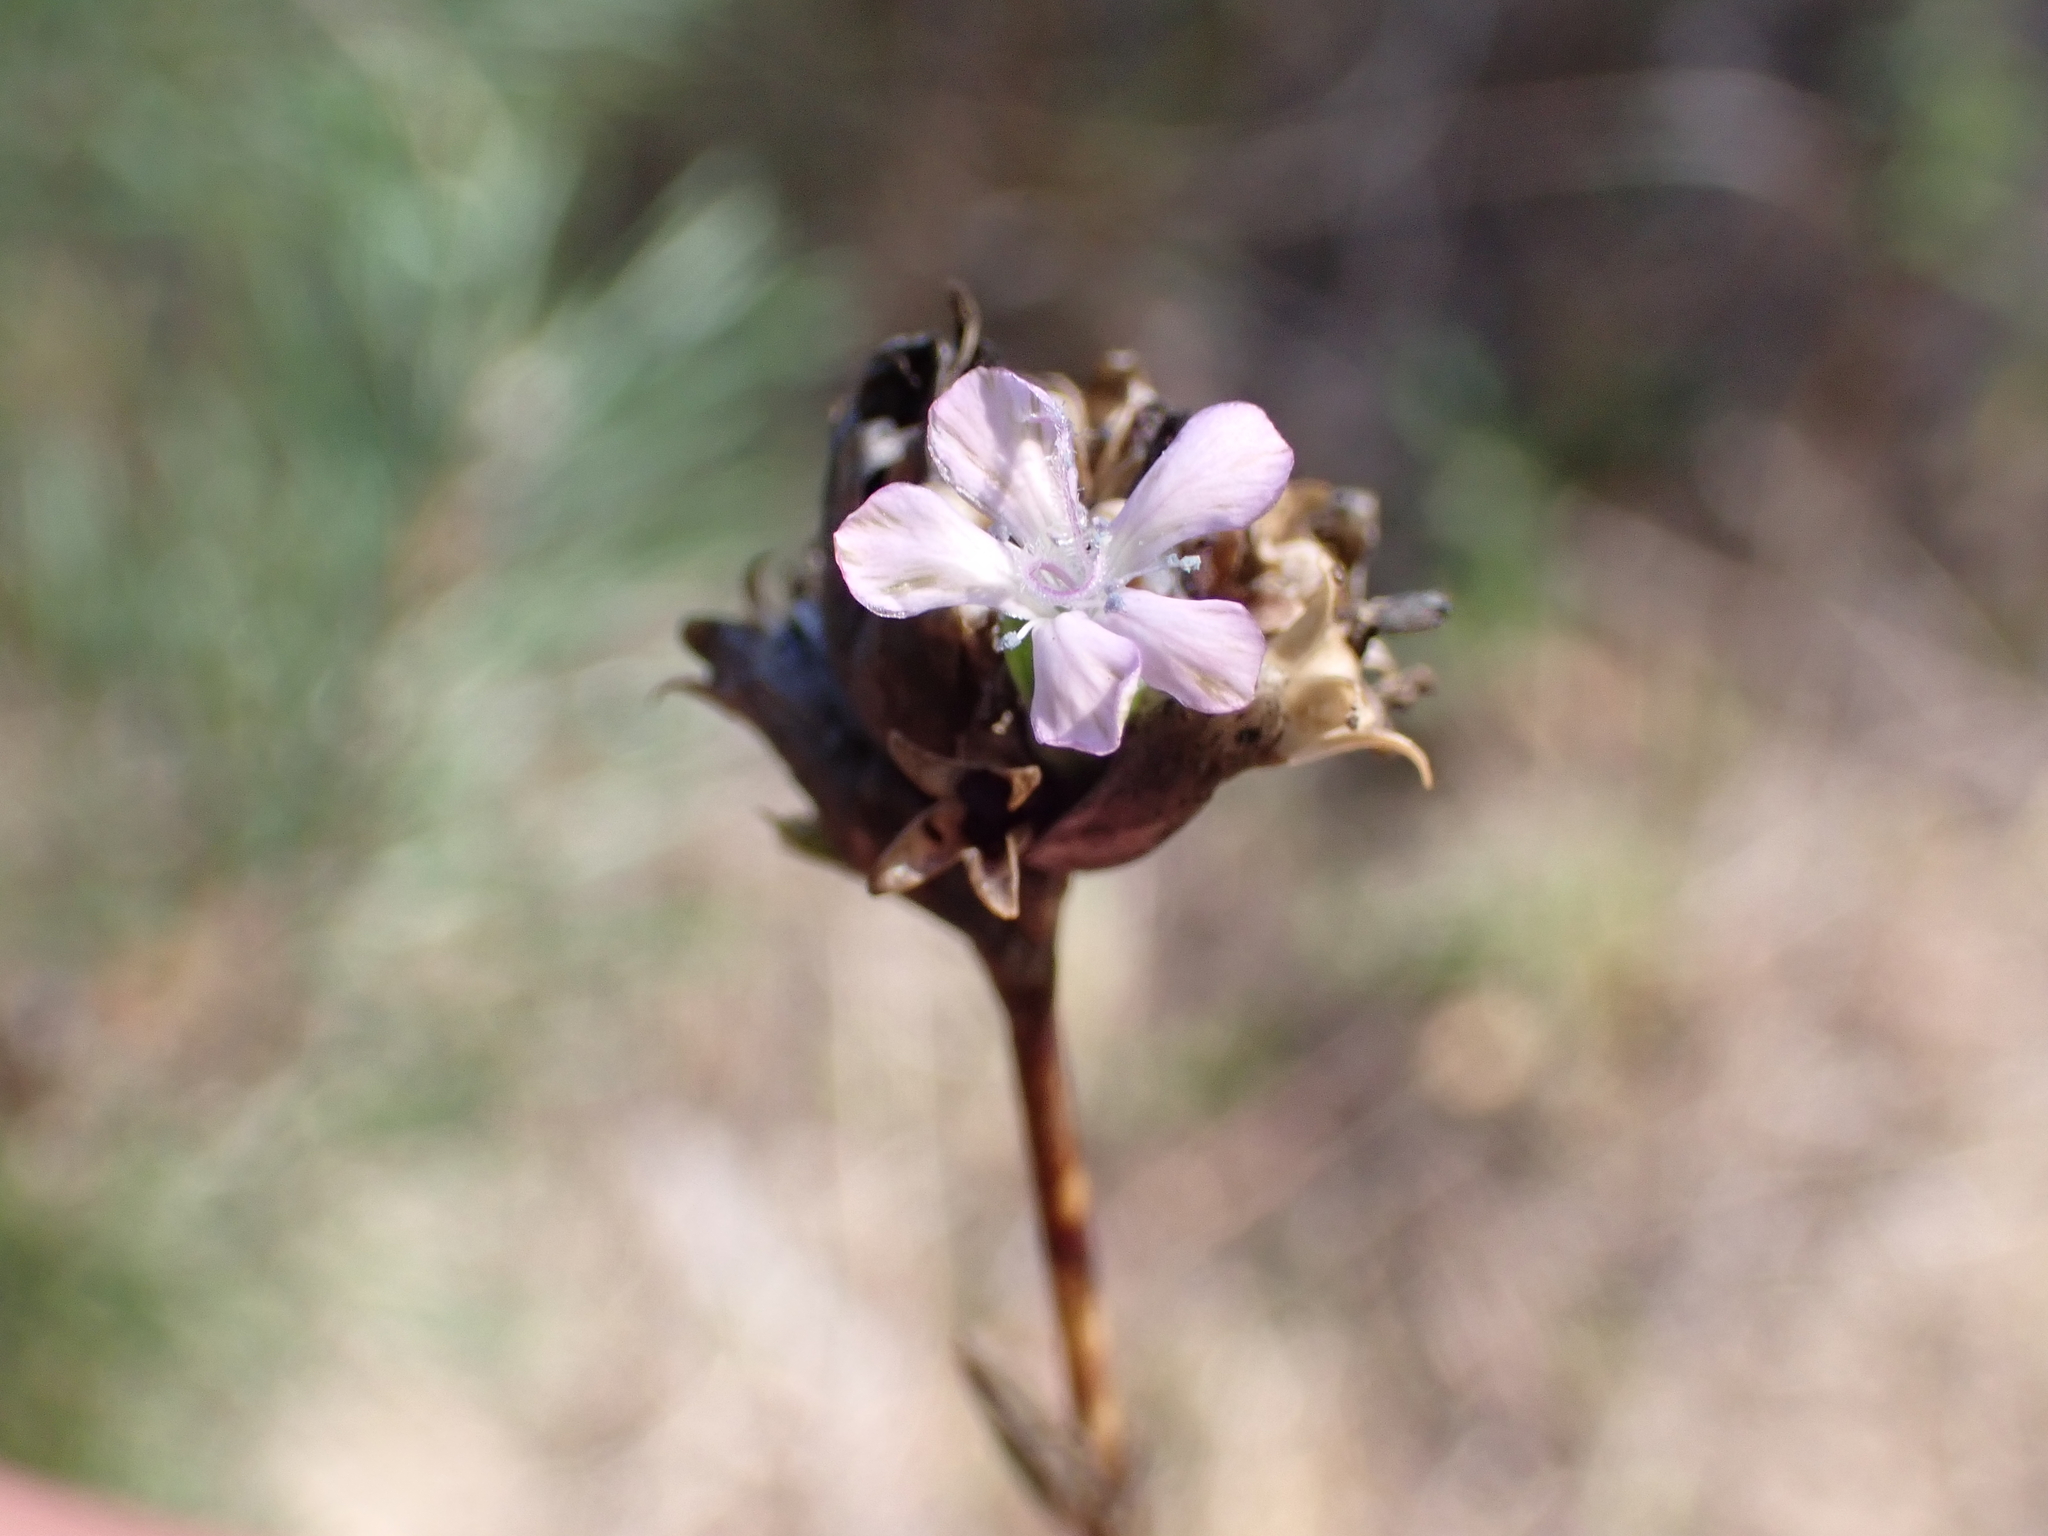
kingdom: Plantae
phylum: Tracheophyta
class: Magnoliopsida
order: Caryophyllales
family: Caryophyllaceae
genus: Petrorhagia
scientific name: Petrorhagia prolifera
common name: Proliferous pink
